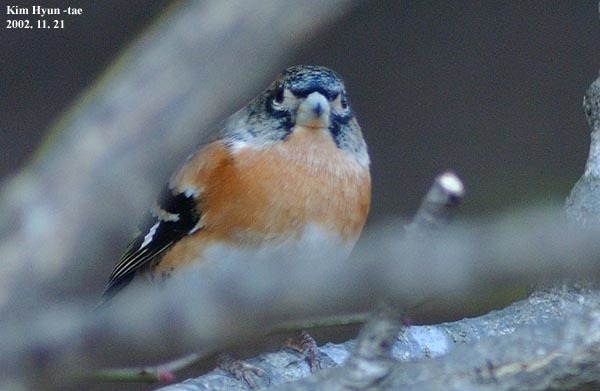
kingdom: Animalia
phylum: Chordata
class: Aves
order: Passeriformes
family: Fringillidae
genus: Fringilla
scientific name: Fringilla montifringilla
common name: Brambling
